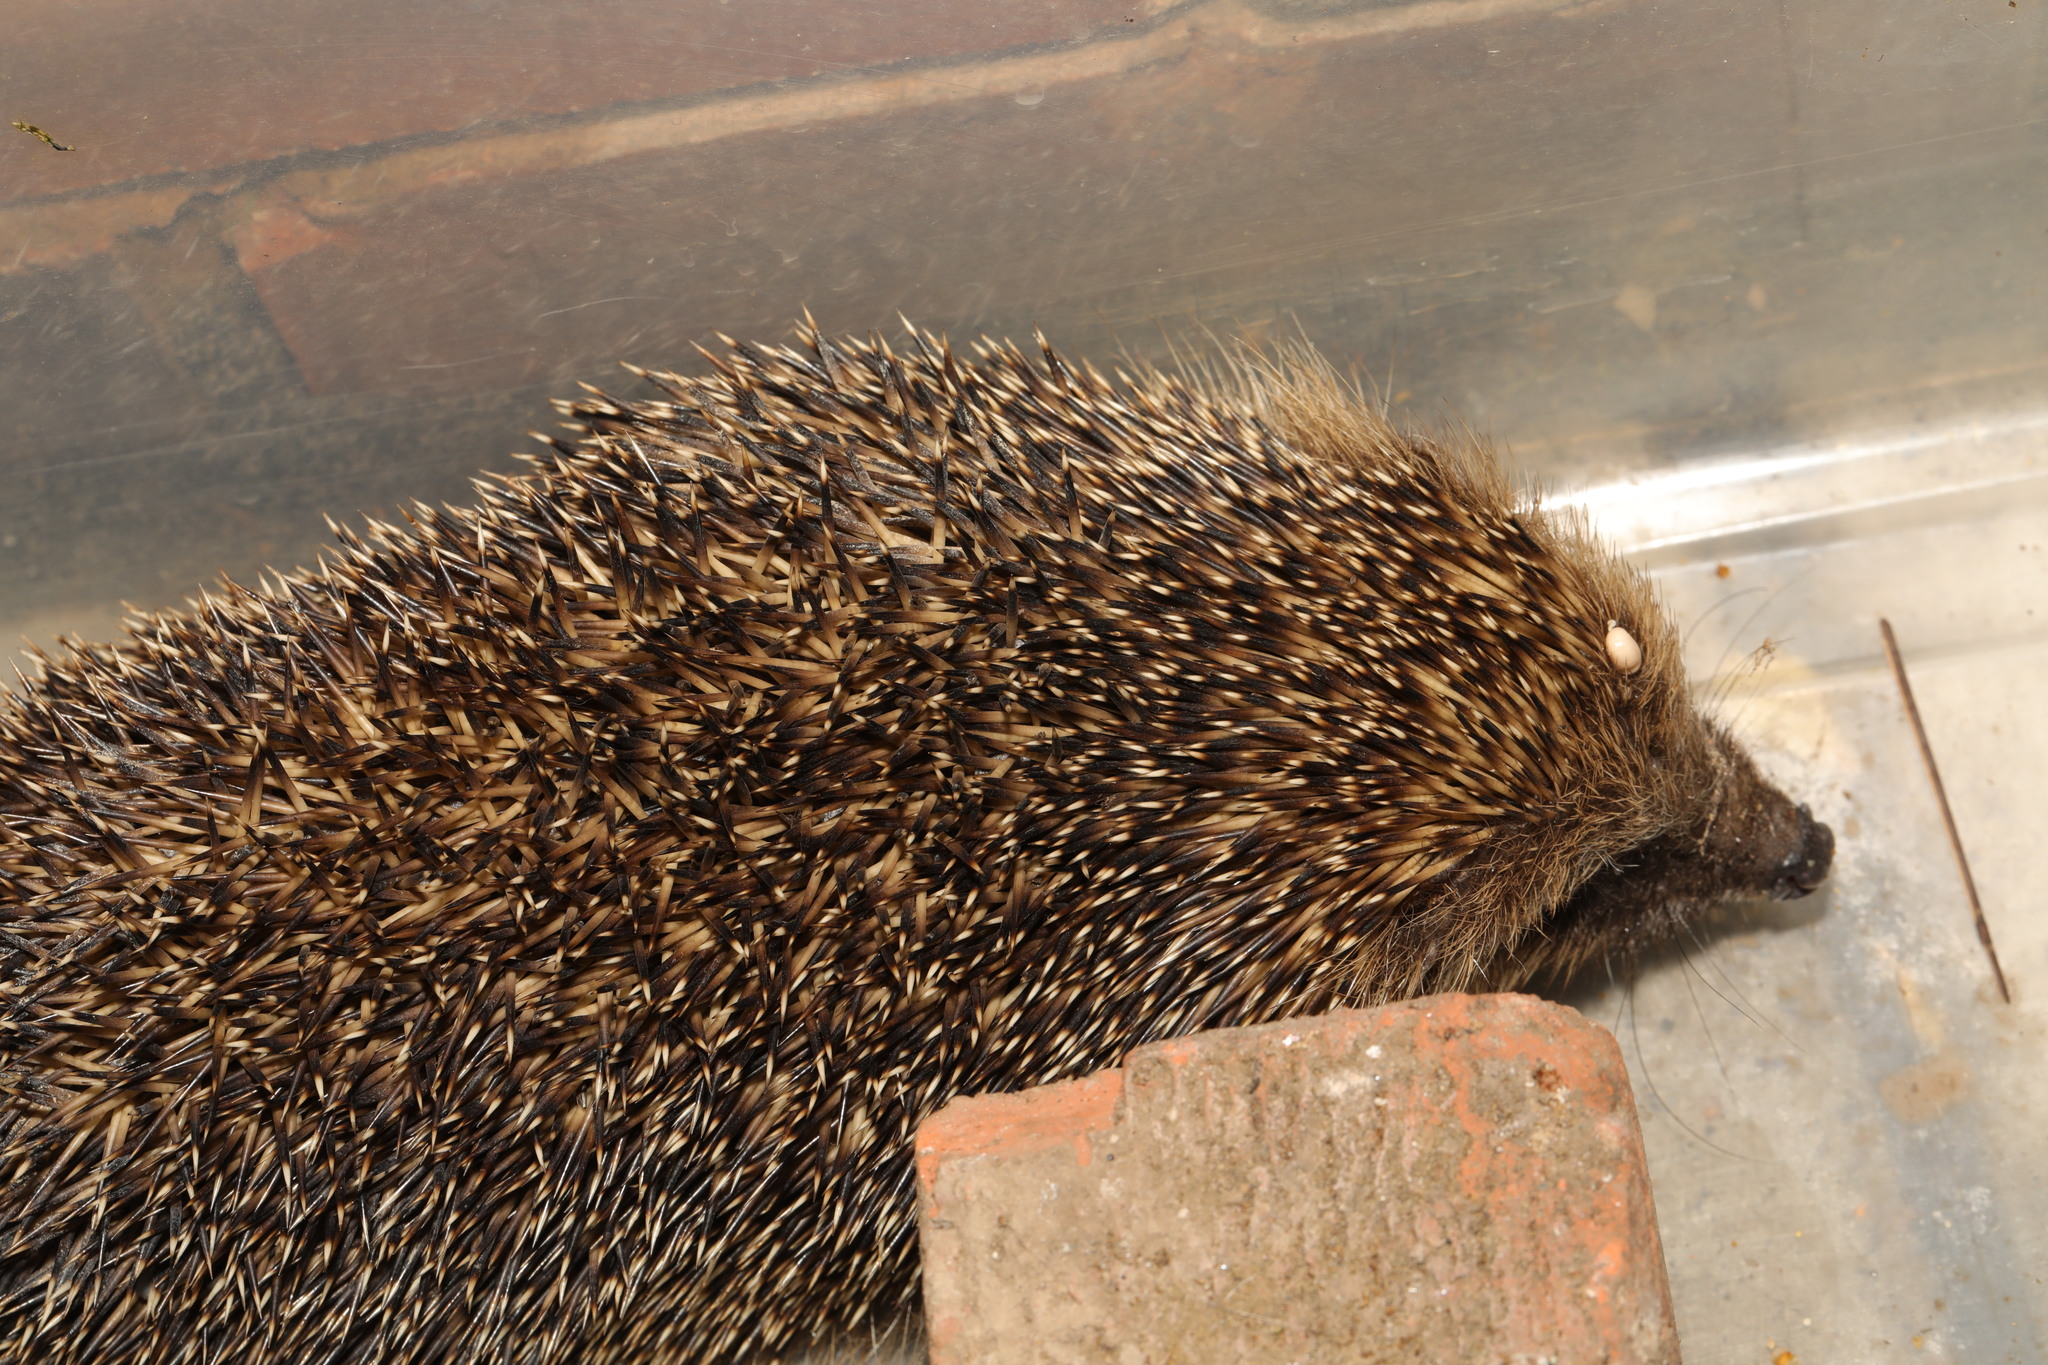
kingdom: Animalia
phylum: Chordata
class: Mammalia
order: Erinaceomorpha
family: Erinaceidae
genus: Erinaceus
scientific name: Erinaceus europaeus
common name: West european hedgehog
